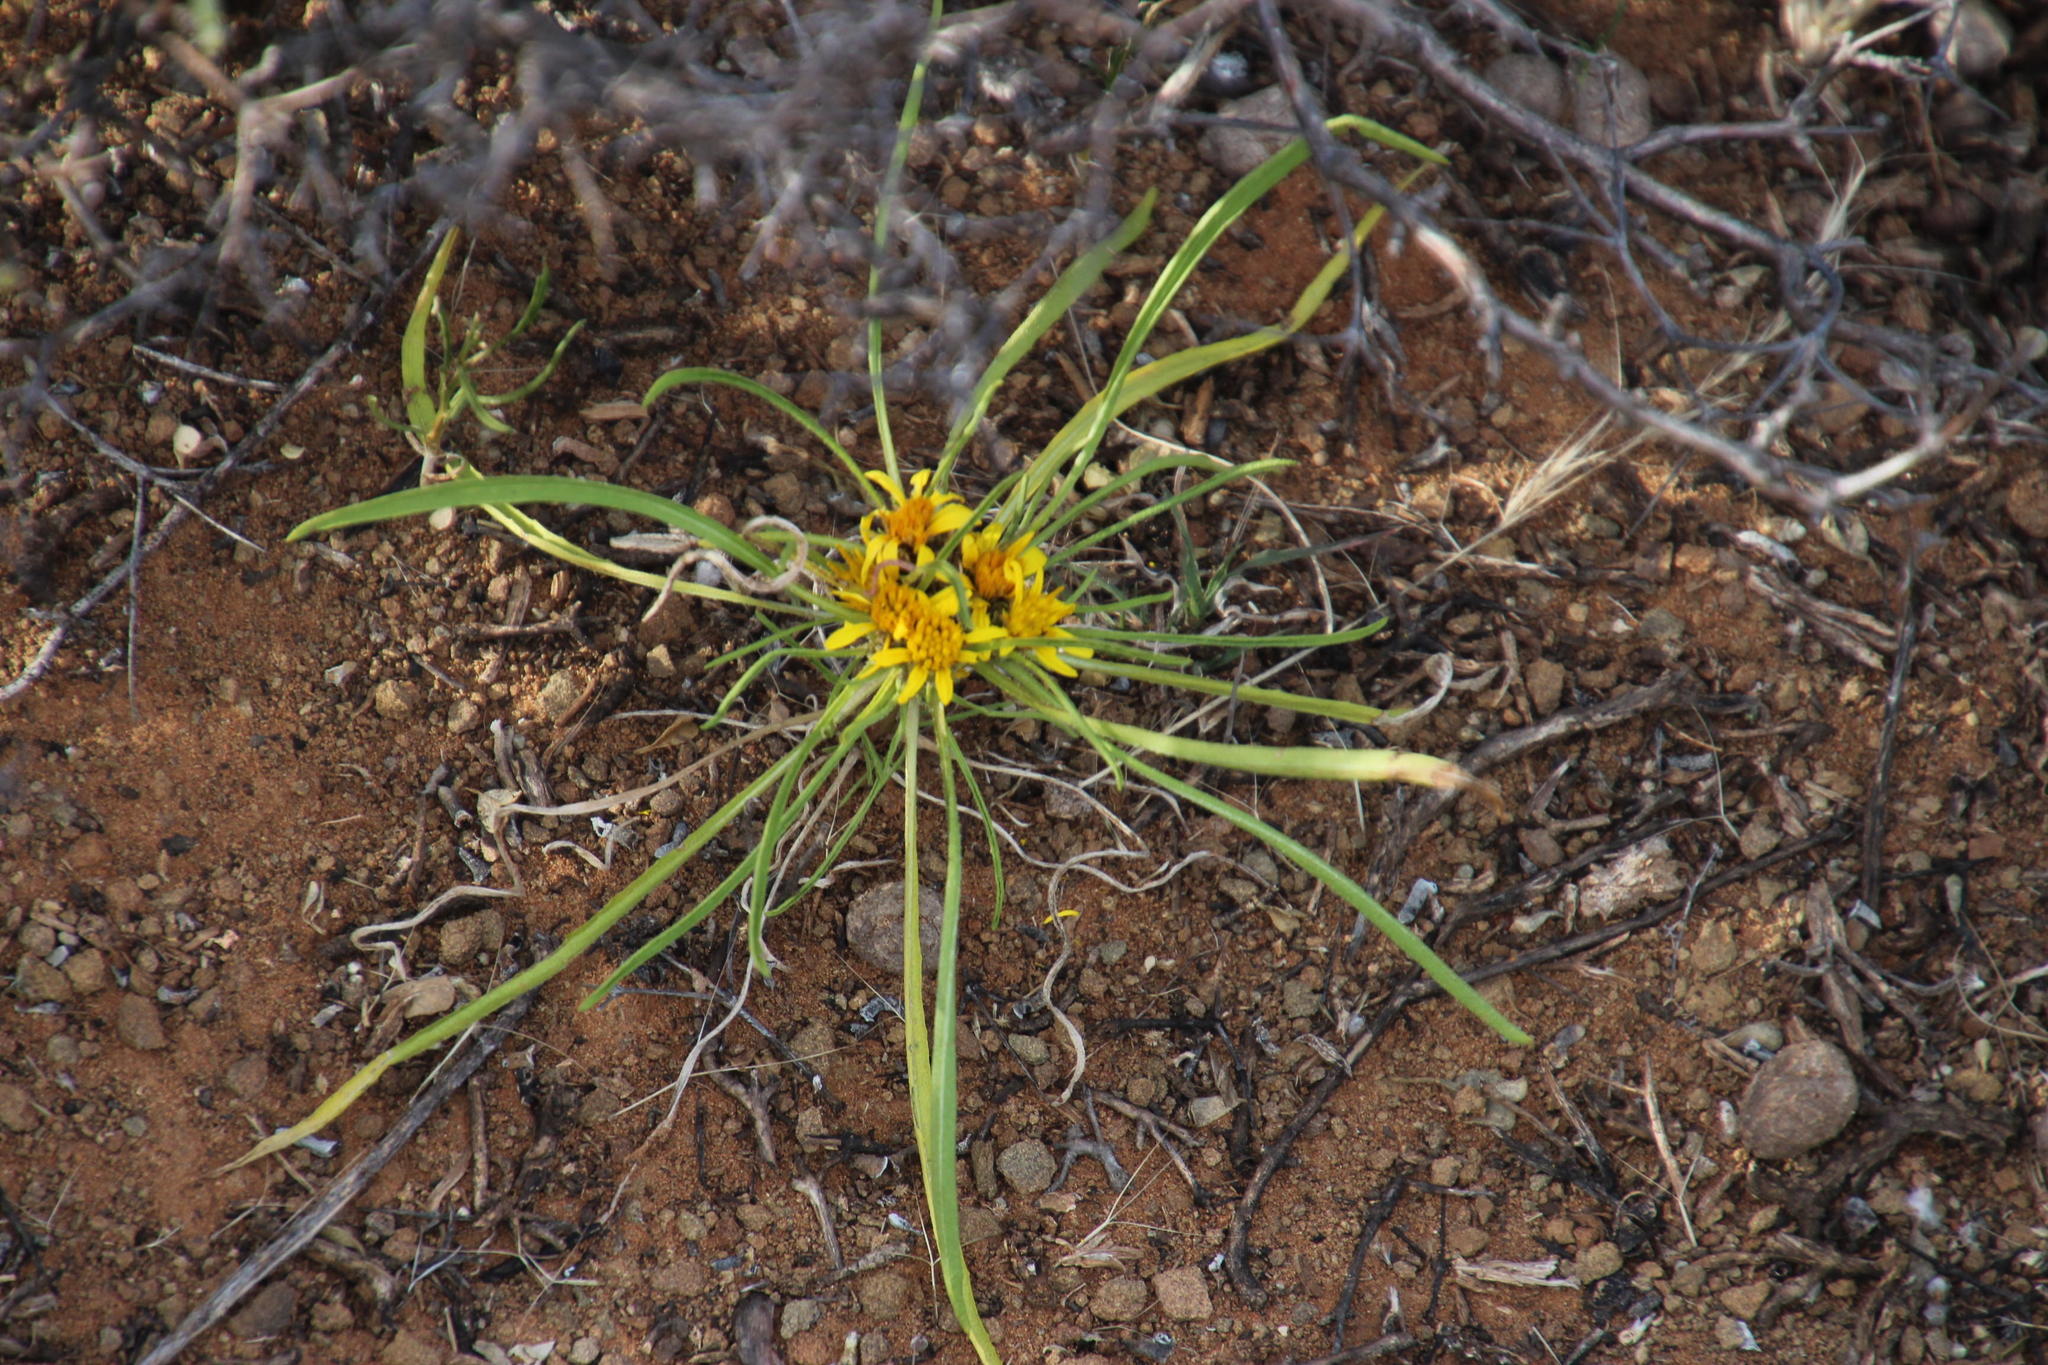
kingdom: Plantae
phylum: Tracheophyta
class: Magnoliopsida
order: Asterales
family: Asteraceae
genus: Geigeria
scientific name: Geigeria ornativa
